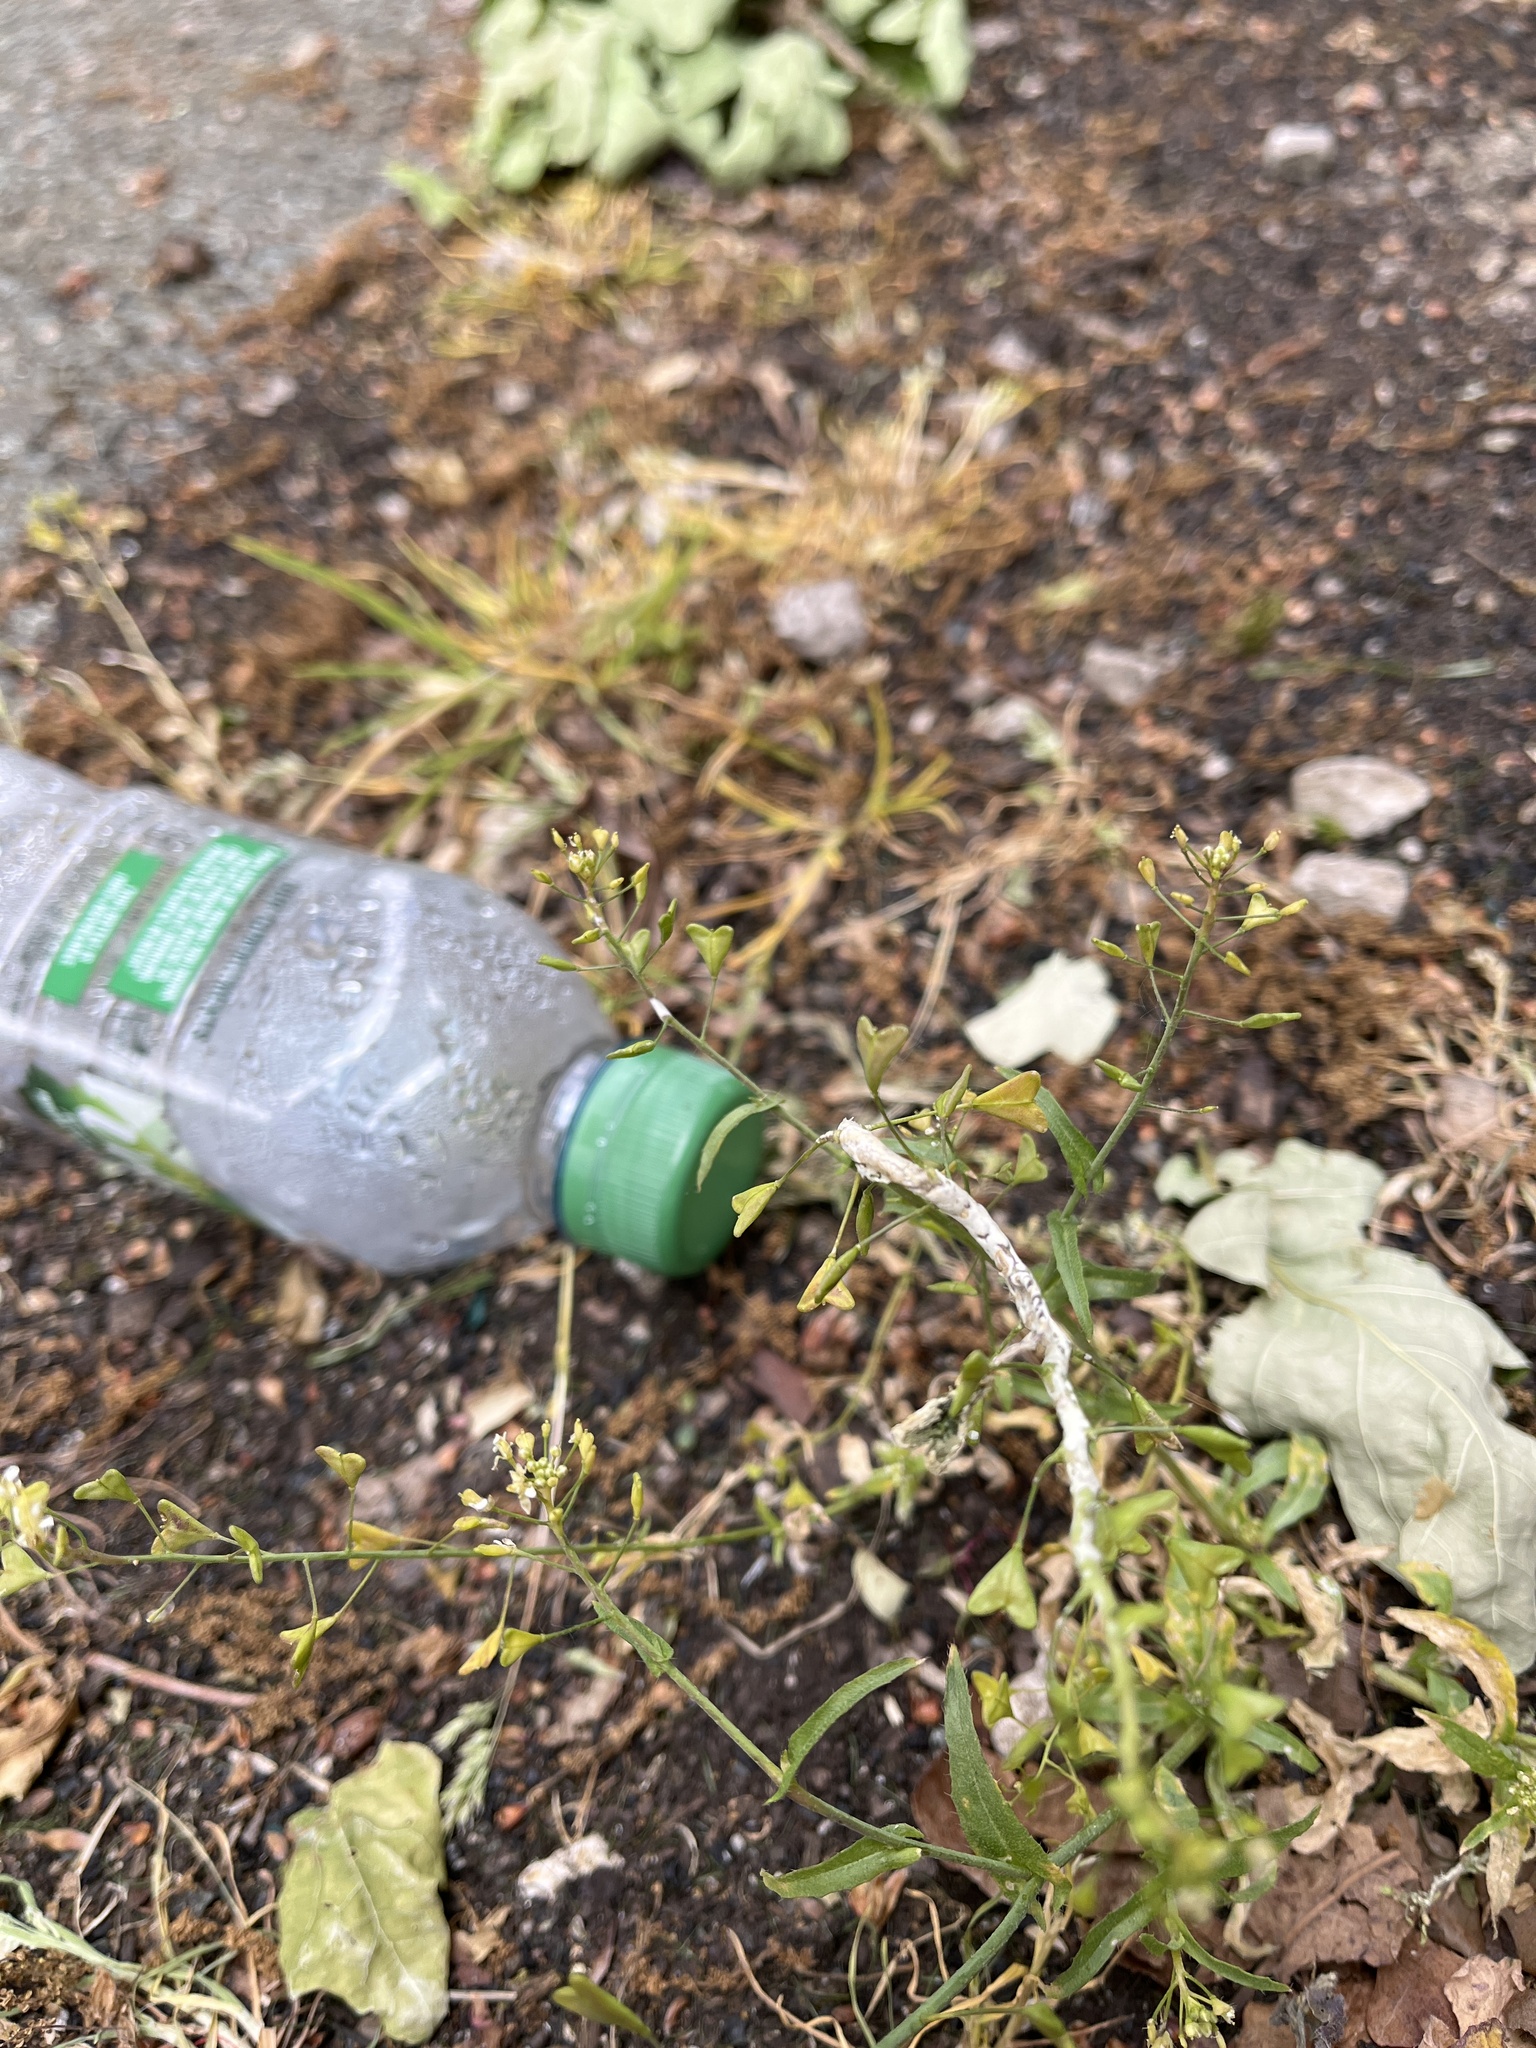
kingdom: Chromista
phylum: Oomycota
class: Peronosporea
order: Albuginales
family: Albuginaceae
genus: Albugo
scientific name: Albugo candida
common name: Crucifer white blister
